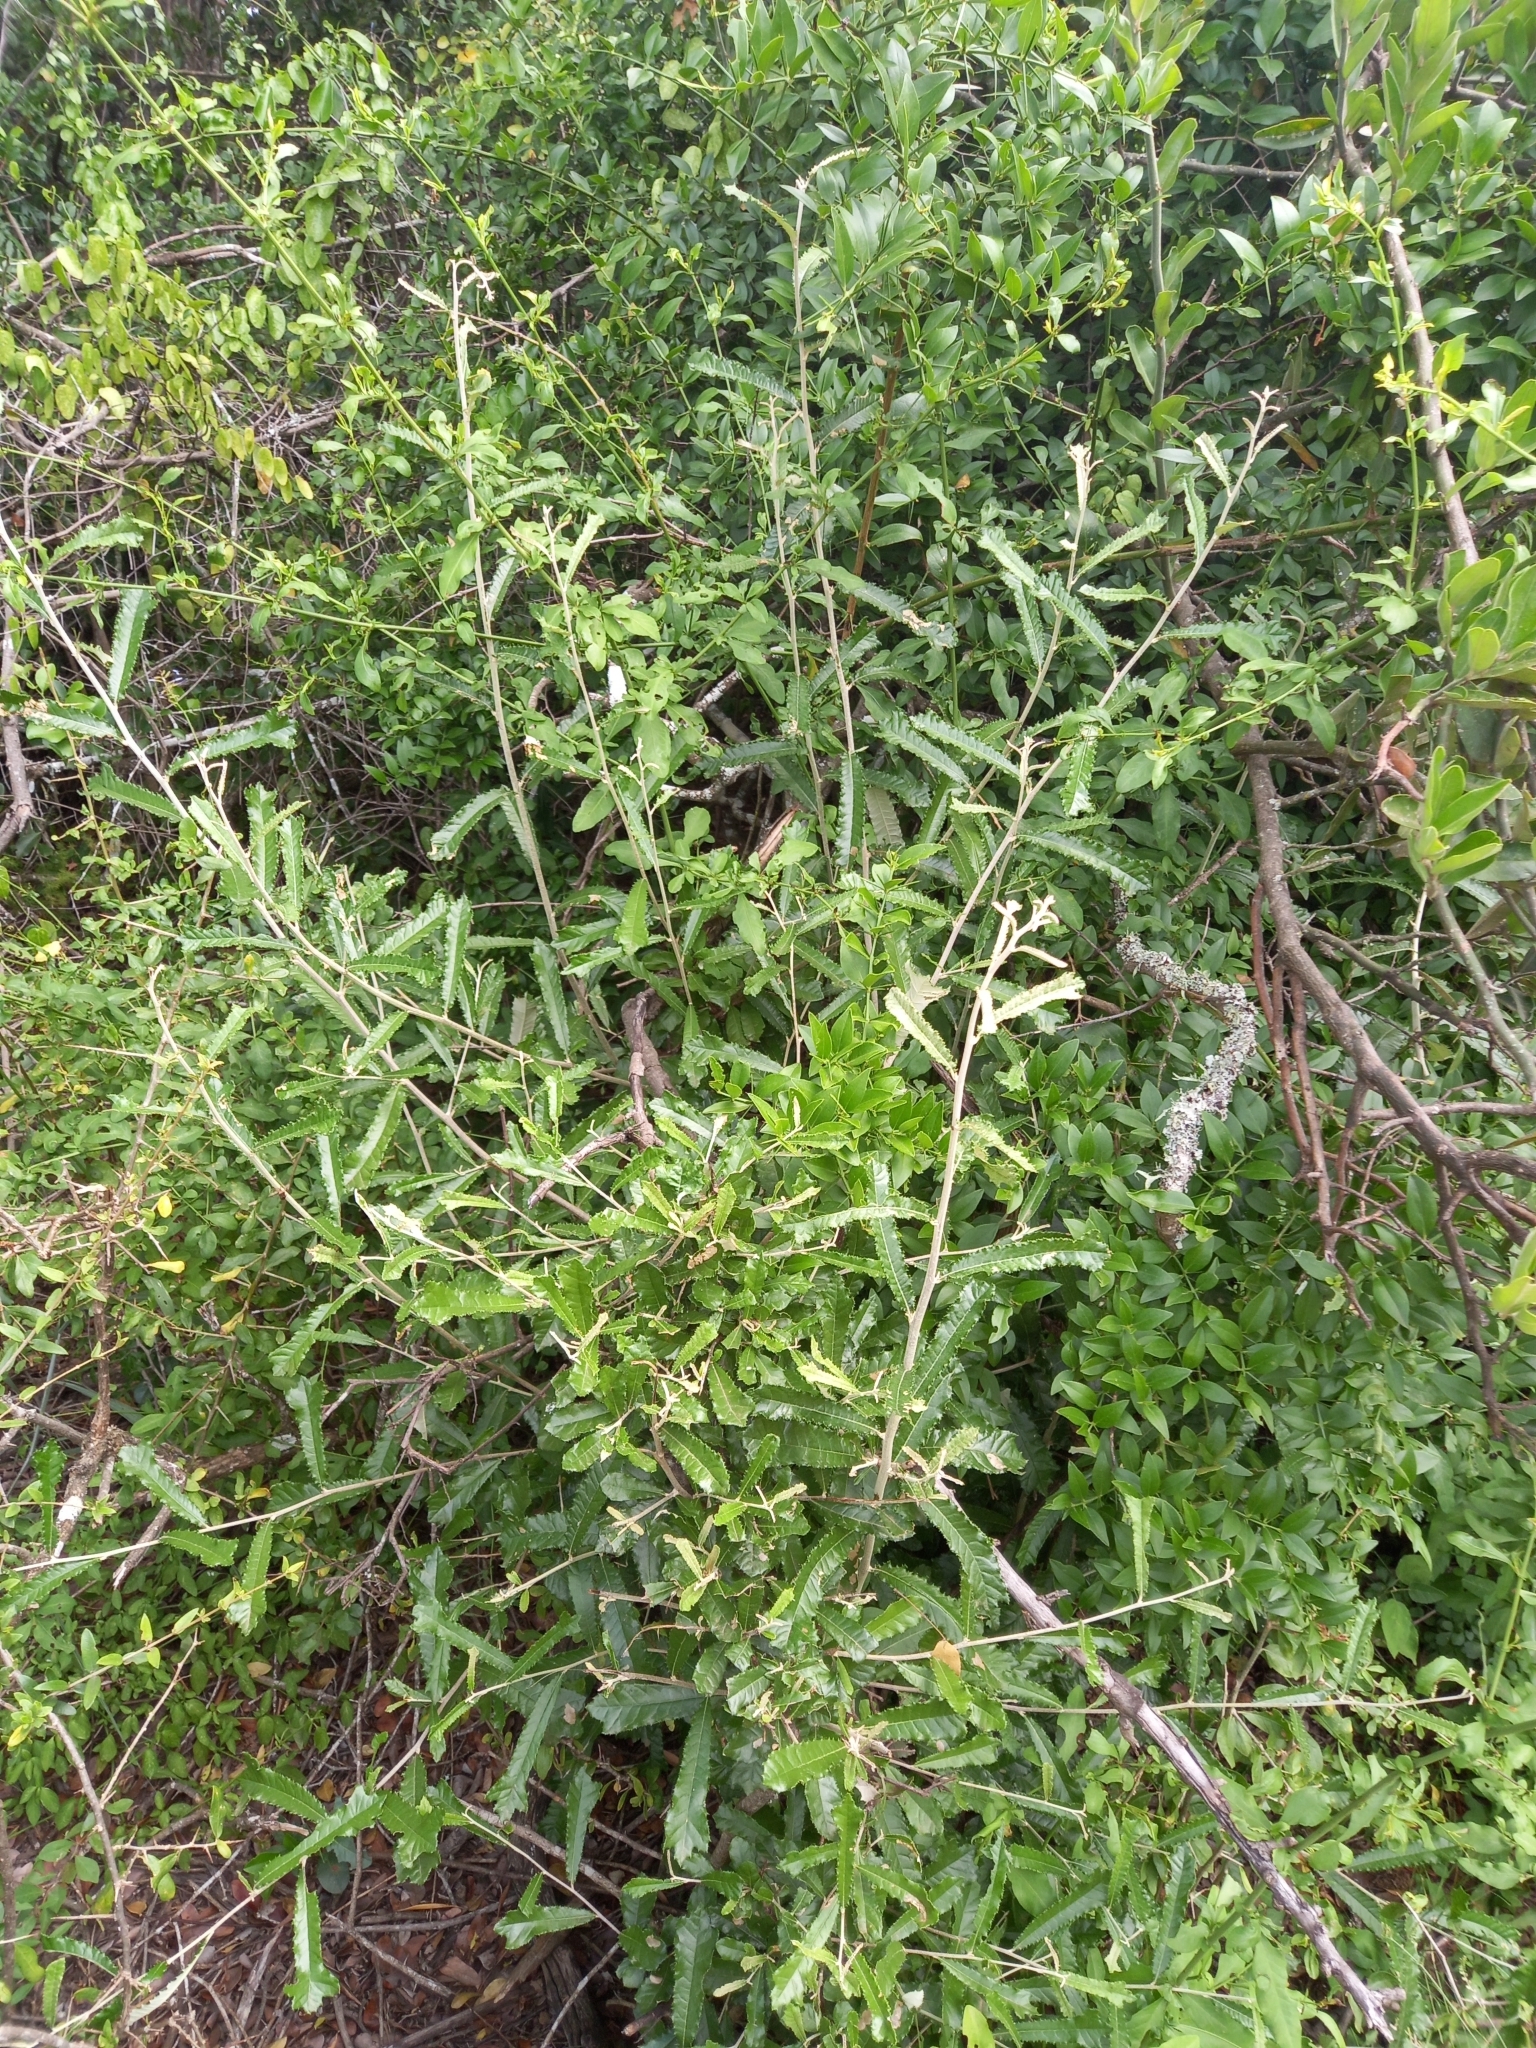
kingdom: Plantae
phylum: Tracheophyta
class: Magnoliopsida
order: Asterales
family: Asteraceae
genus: Brachylaena
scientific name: Brachylaena elliptica
